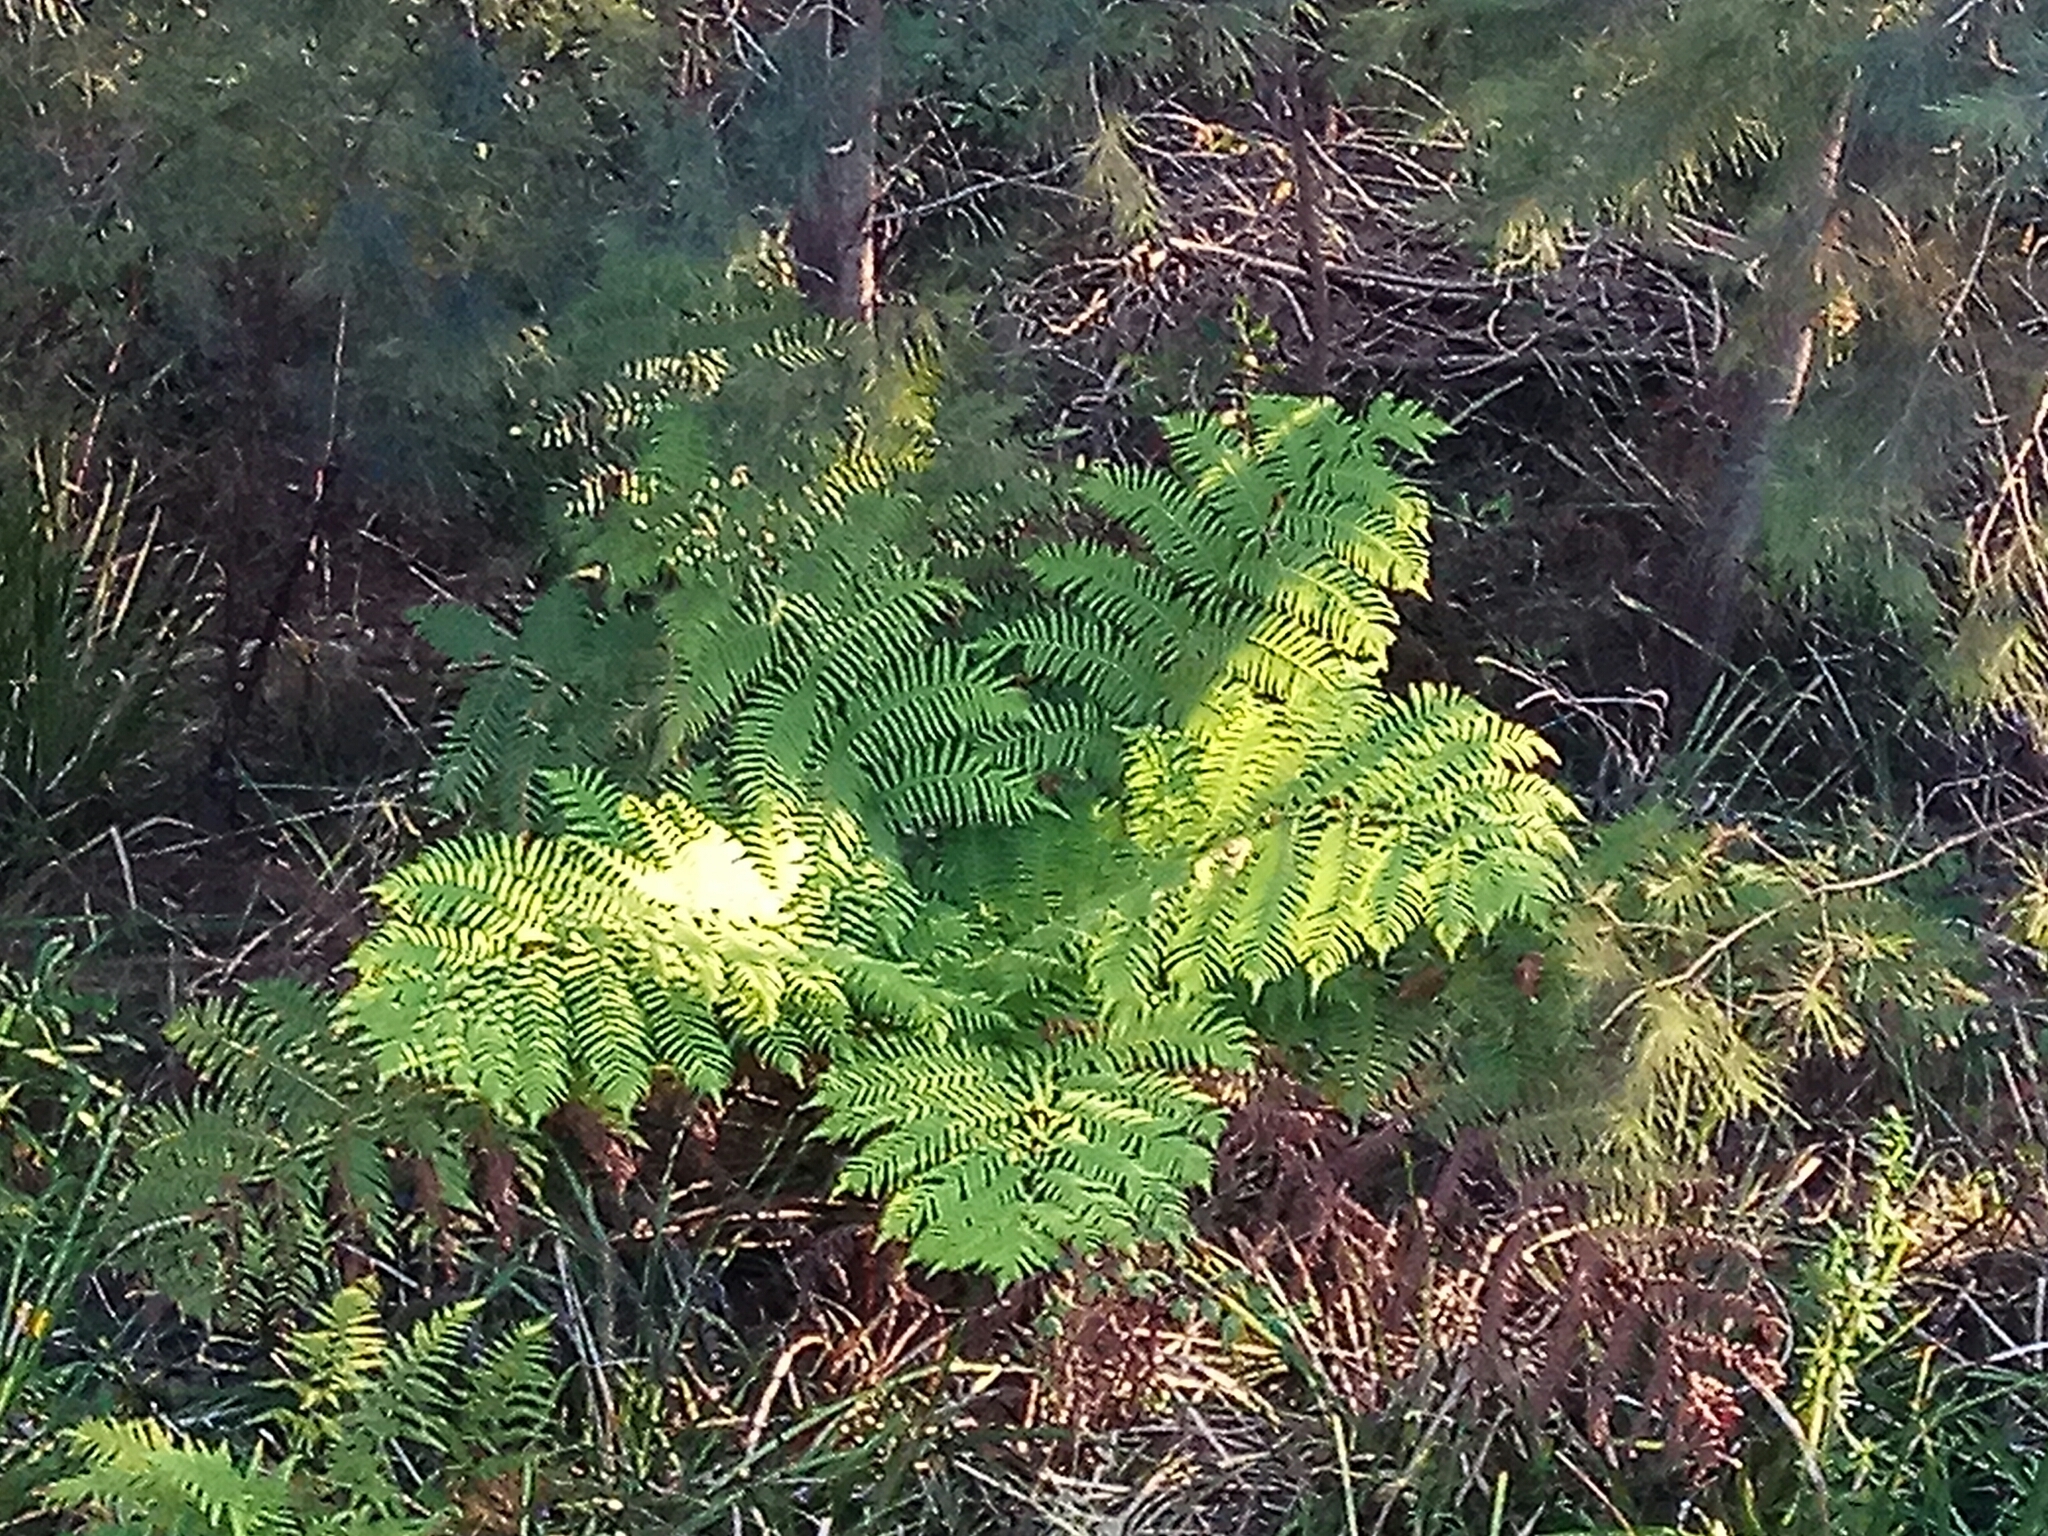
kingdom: Plantae
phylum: Tracheophyta
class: Polypodiopsida
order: Cyatheales
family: Cyatheaceae
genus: Sphaeropteris
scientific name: Sphaeropteris cooperi
